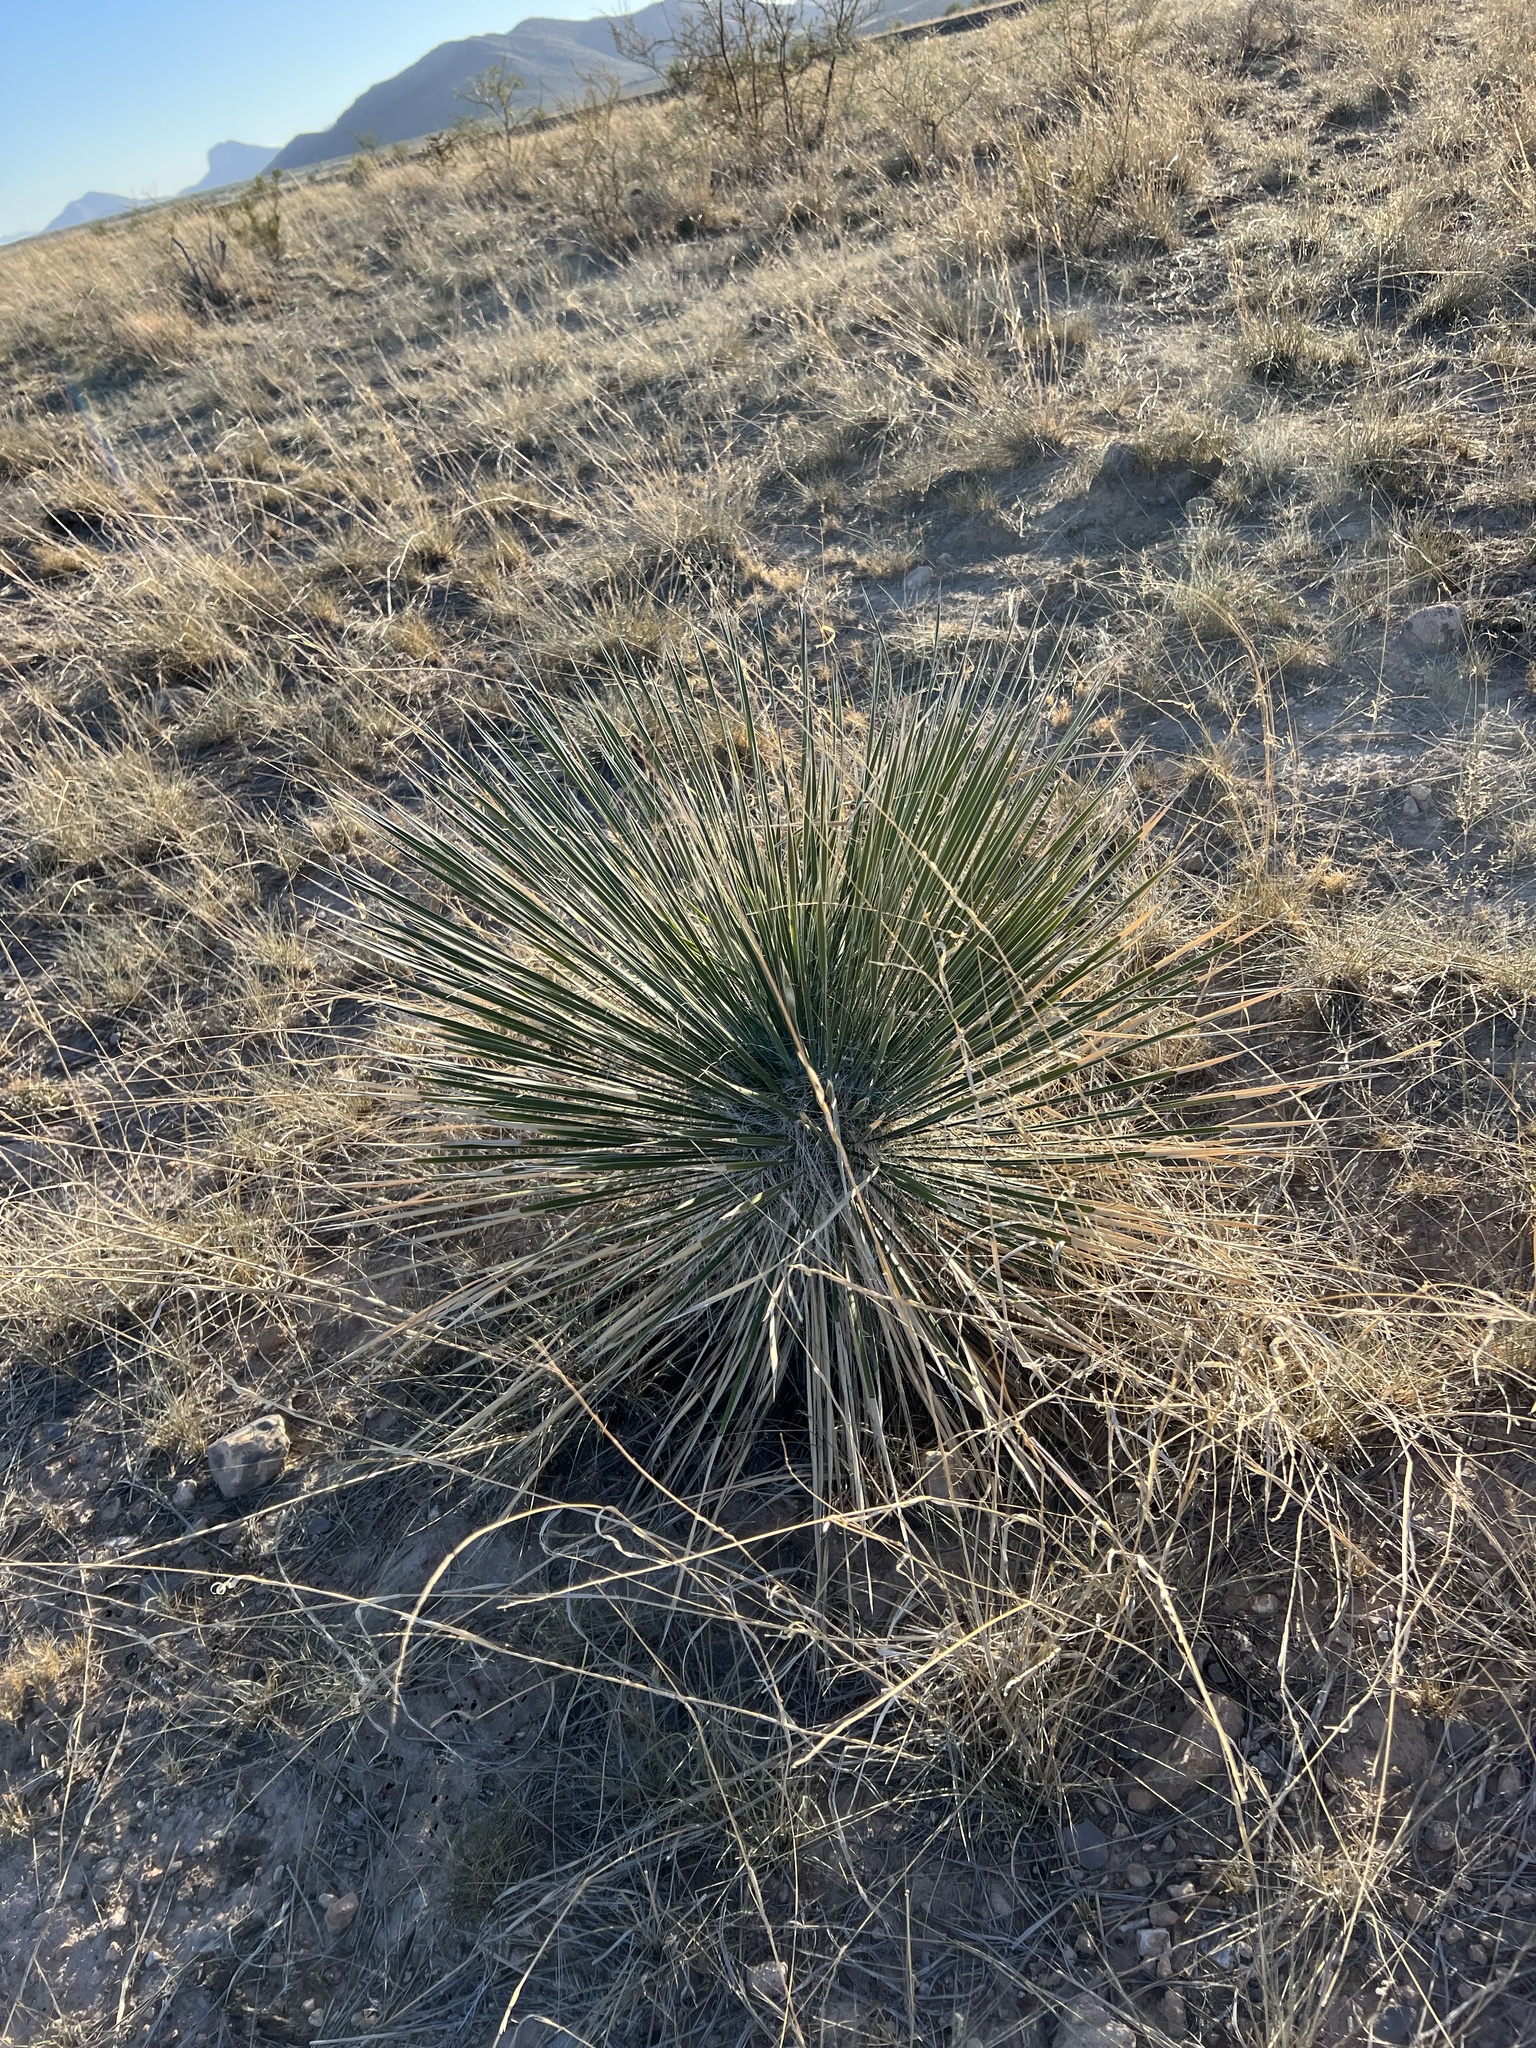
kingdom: Plantae
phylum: Tracheophyta
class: Liliopsida
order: Asparagales
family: Asparagaceae
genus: Yucca
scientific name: Yucca elata
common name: Palmella
